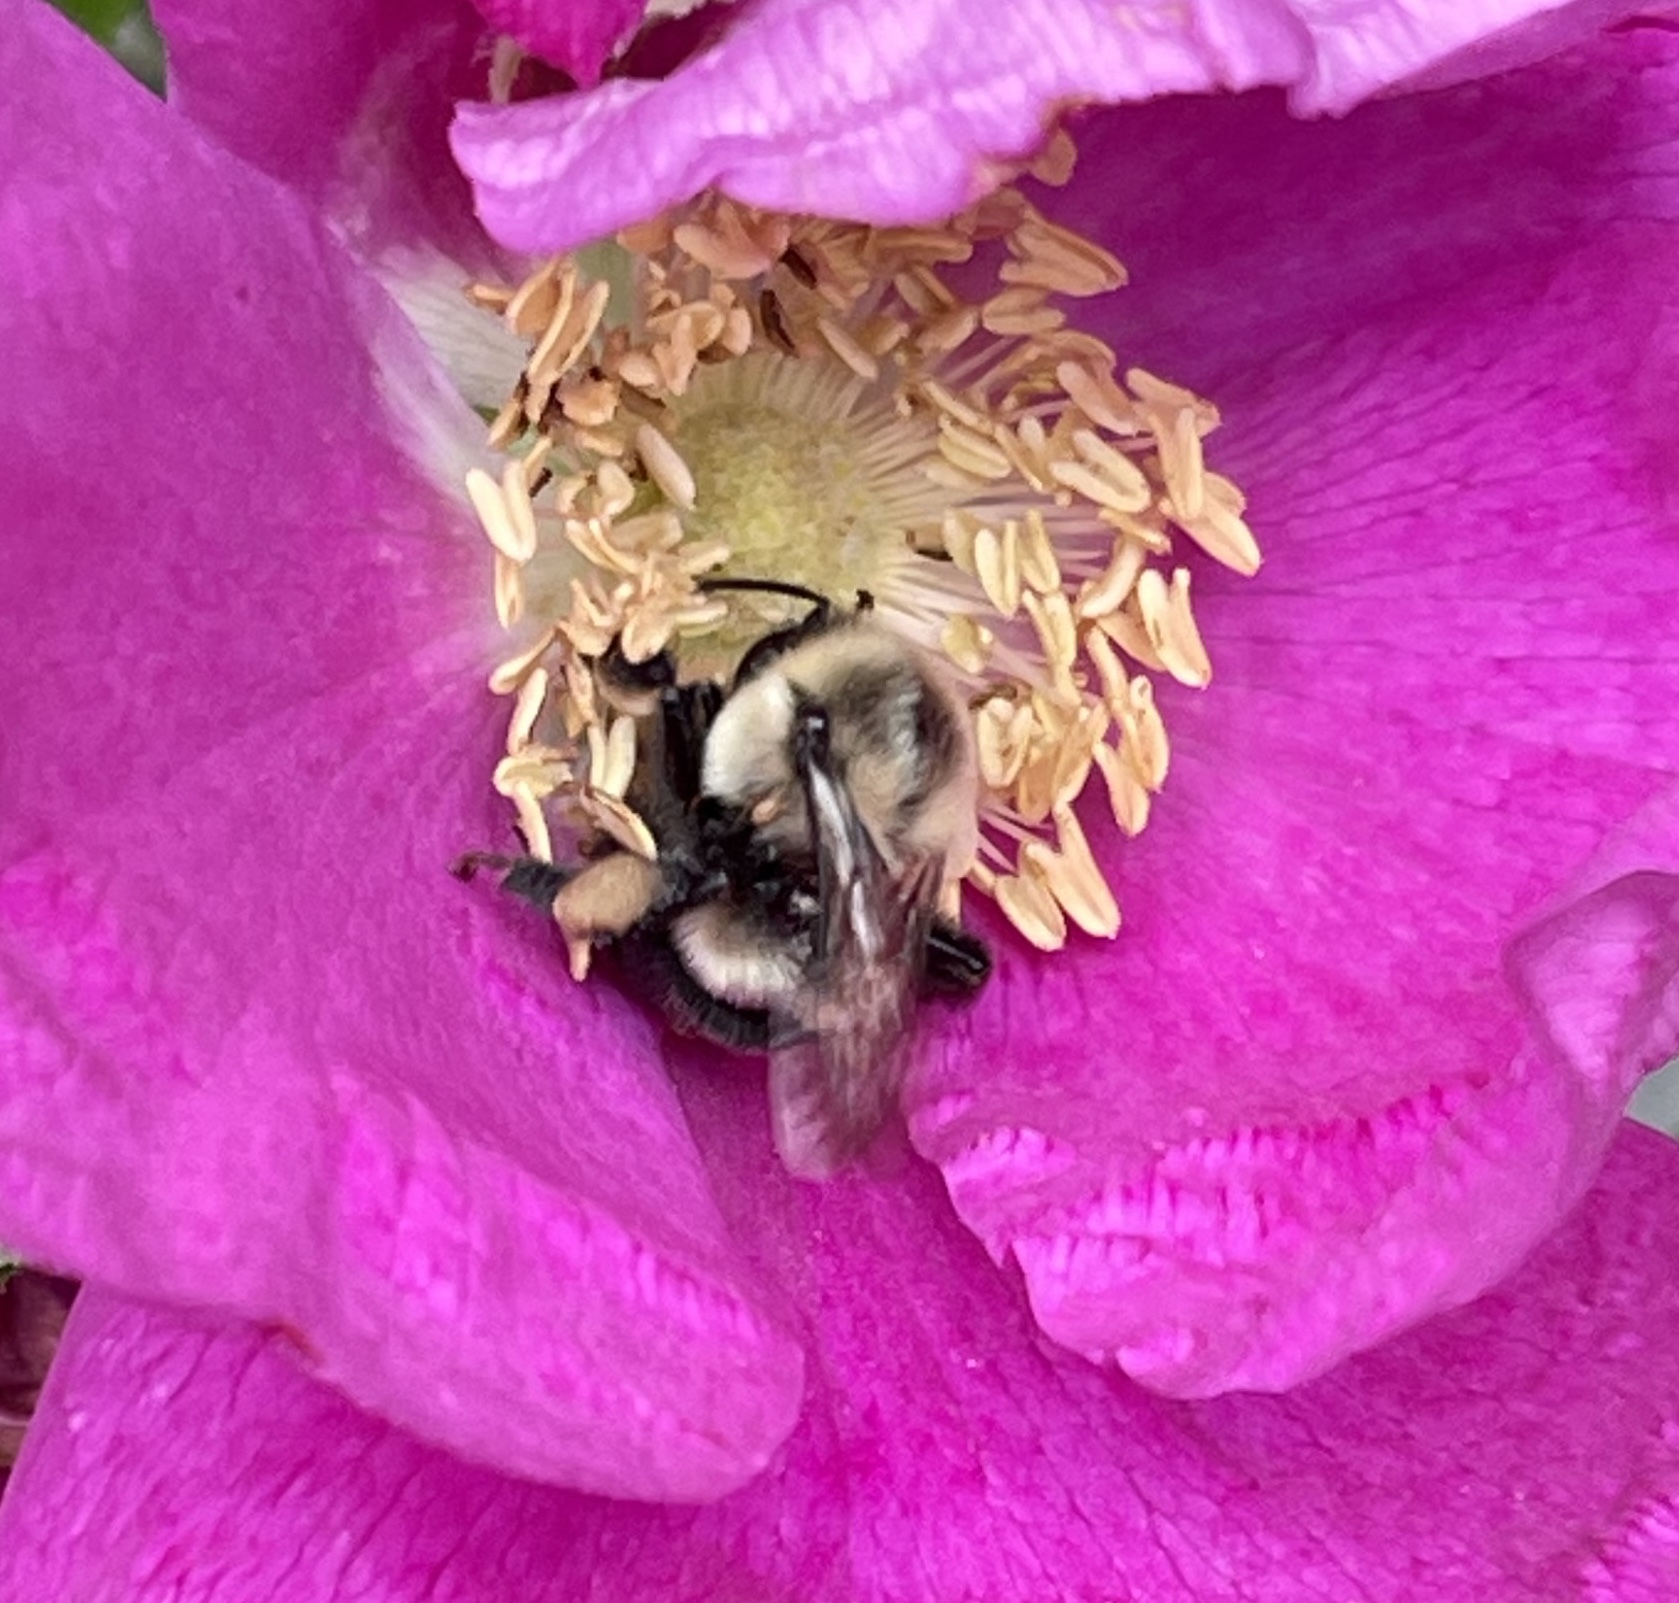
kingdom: Animalia
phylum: Arthropoda
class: Insecta
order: Hymenoptera
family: Apidae
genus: Bombus
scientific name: Bombus impatiens
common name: Common eastern bumble bee
